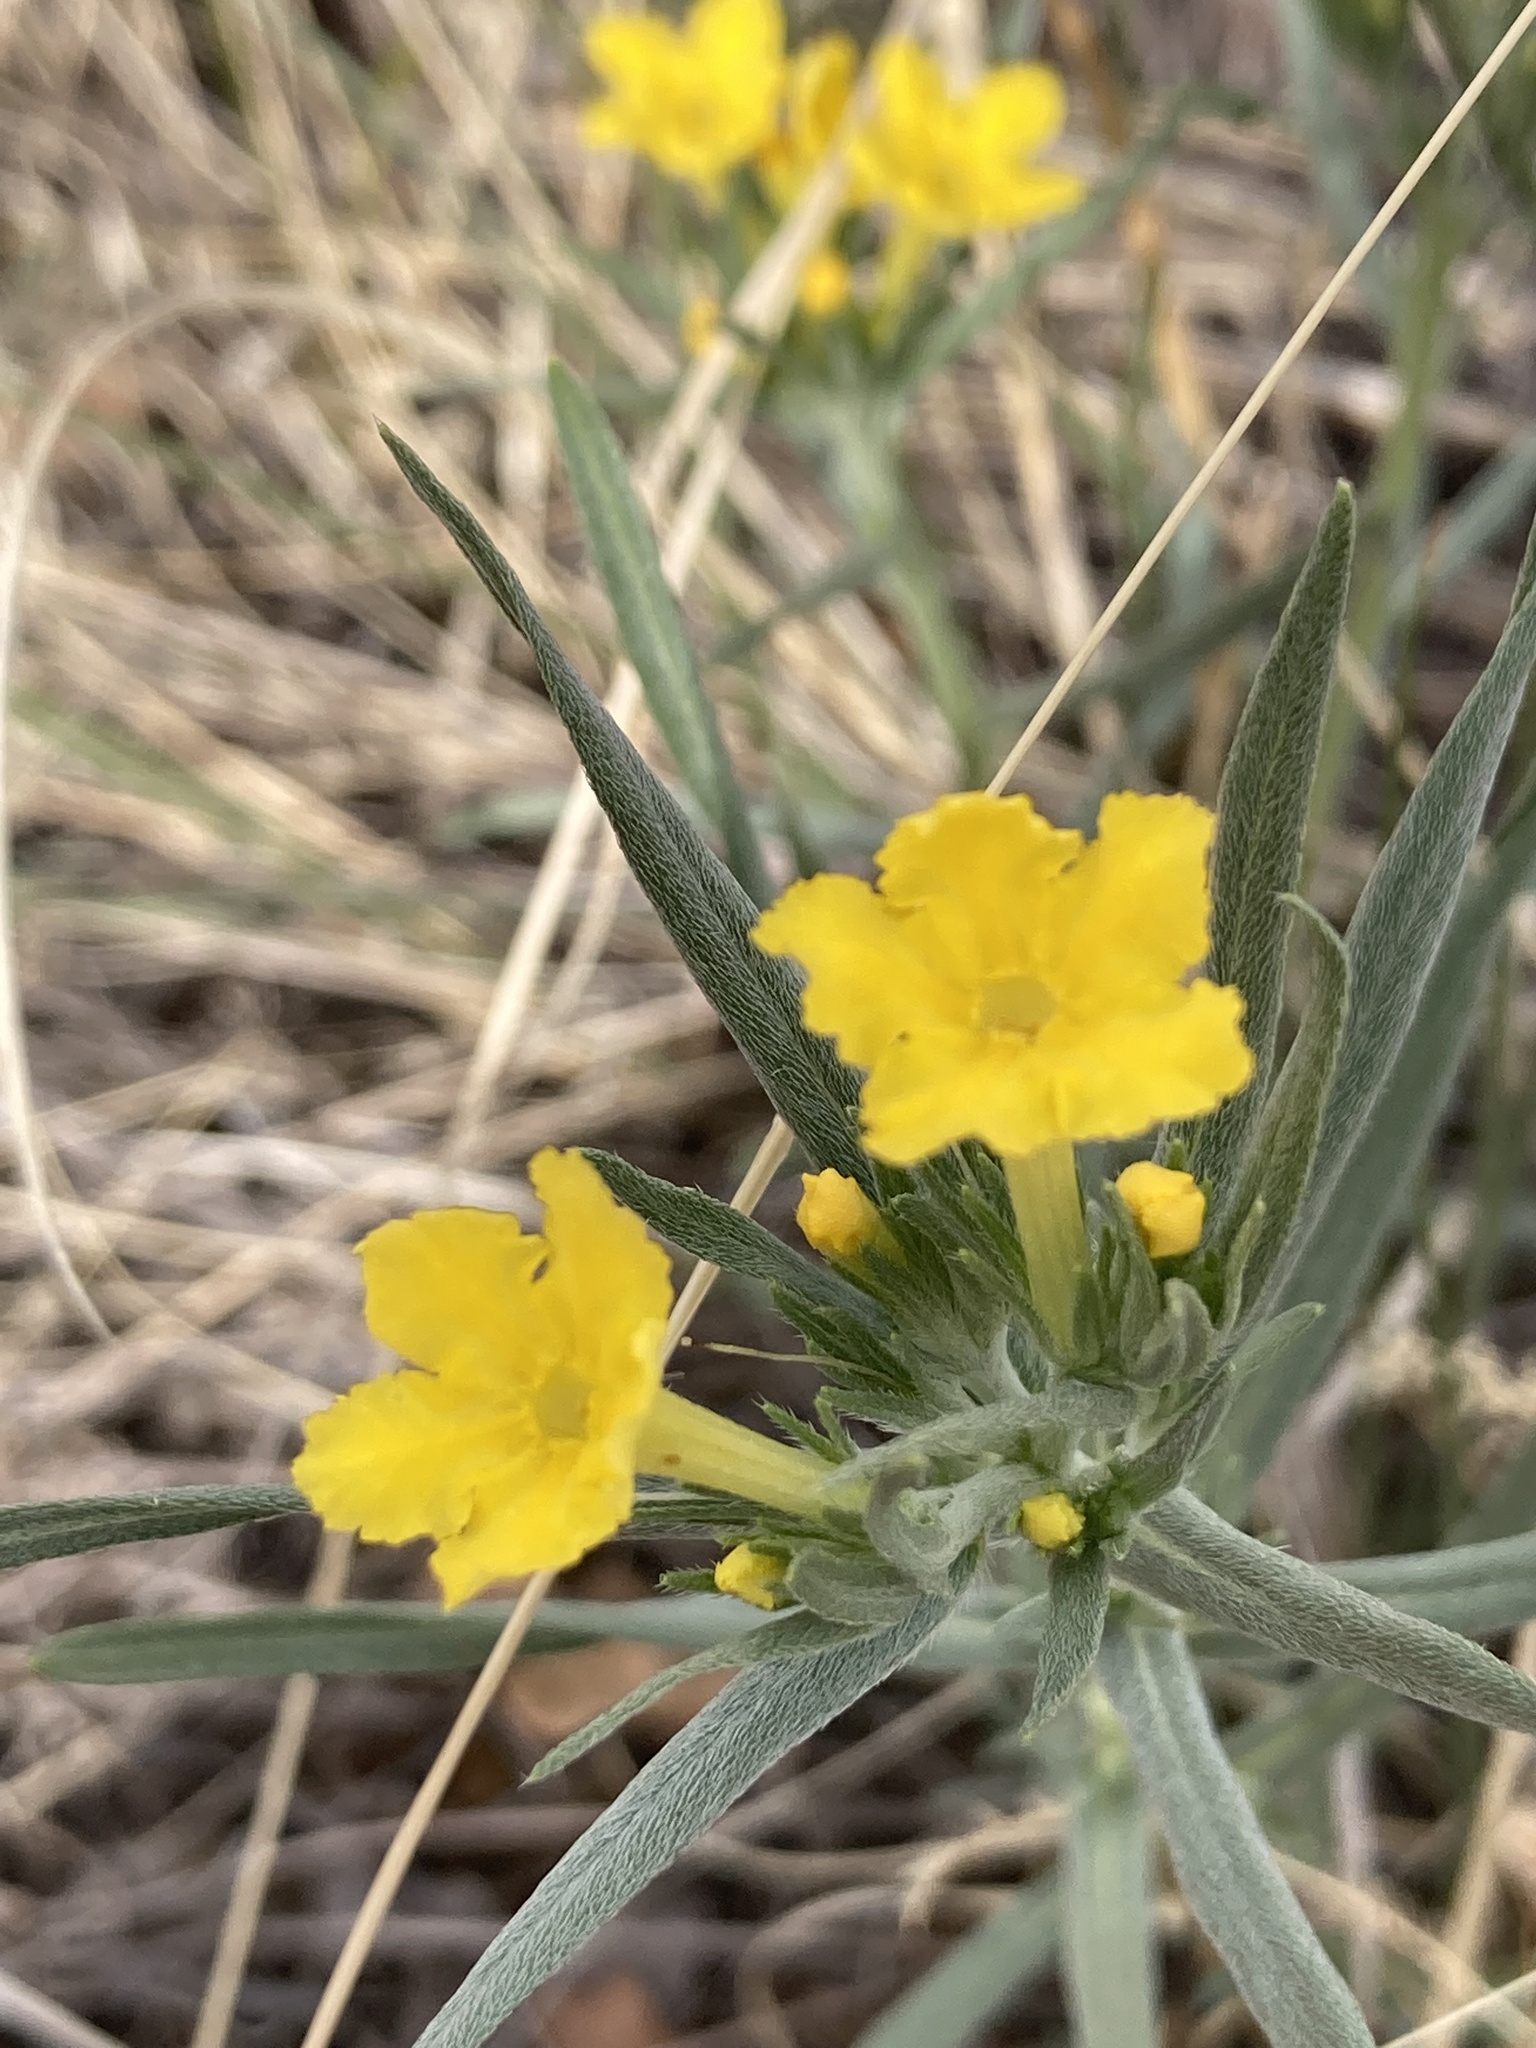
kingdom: Plantae
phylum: Tracheophyta
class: Magnoliopsida
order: Boraginales
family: Boraginaceae
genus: Lithospermum
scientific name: Lithospermum incisum
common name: Fringed gromwell
